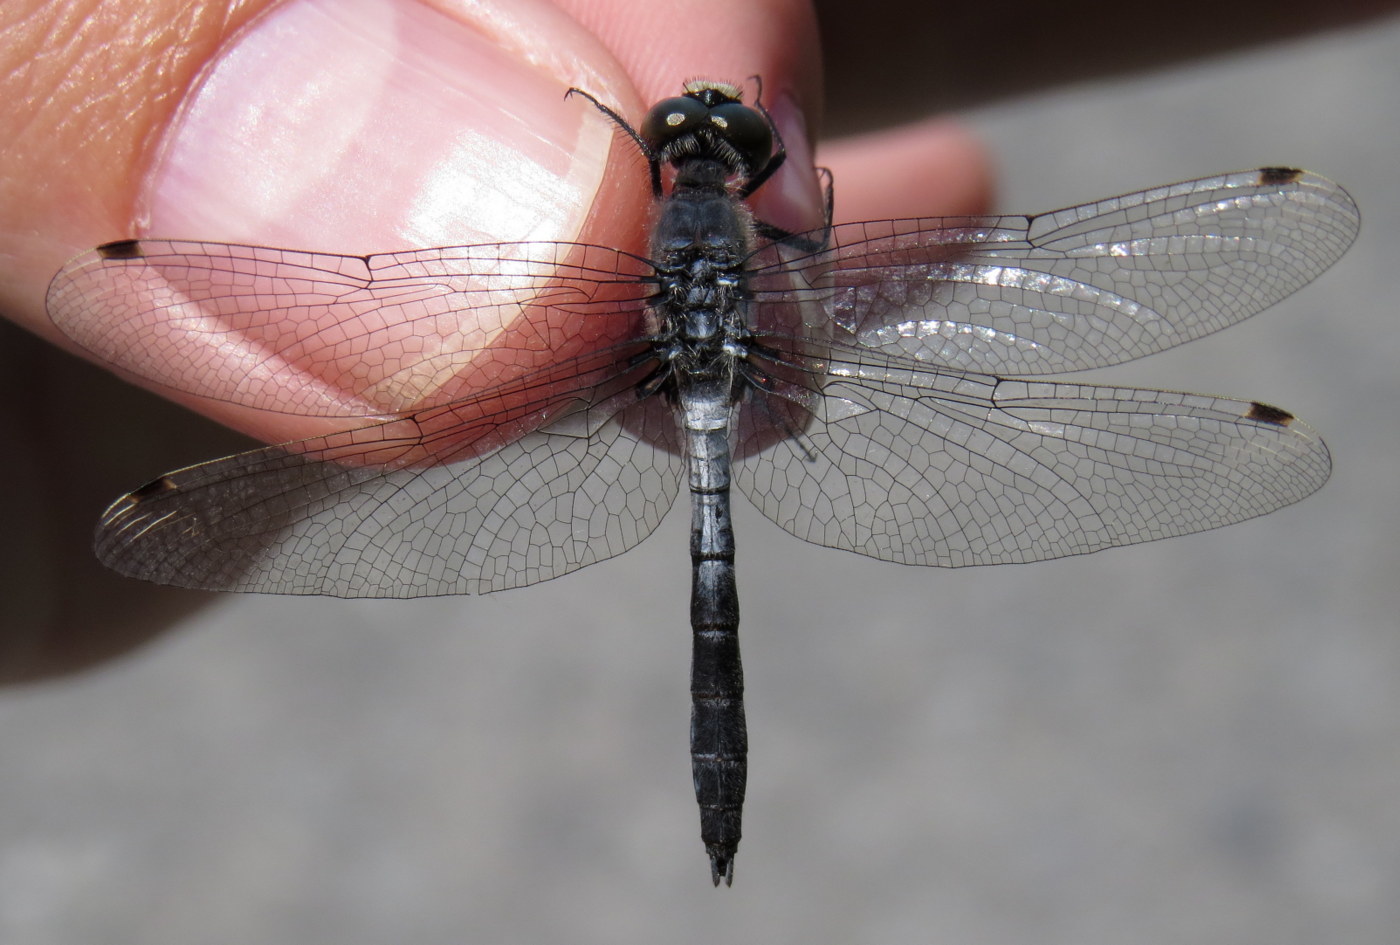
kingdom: Animalia
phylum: Arthropoda
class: Insecta
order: Odonata
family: Libellulidae
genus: Leucorrhinia
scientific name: Leucorrhinia frigida
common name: Frosted whiteface
